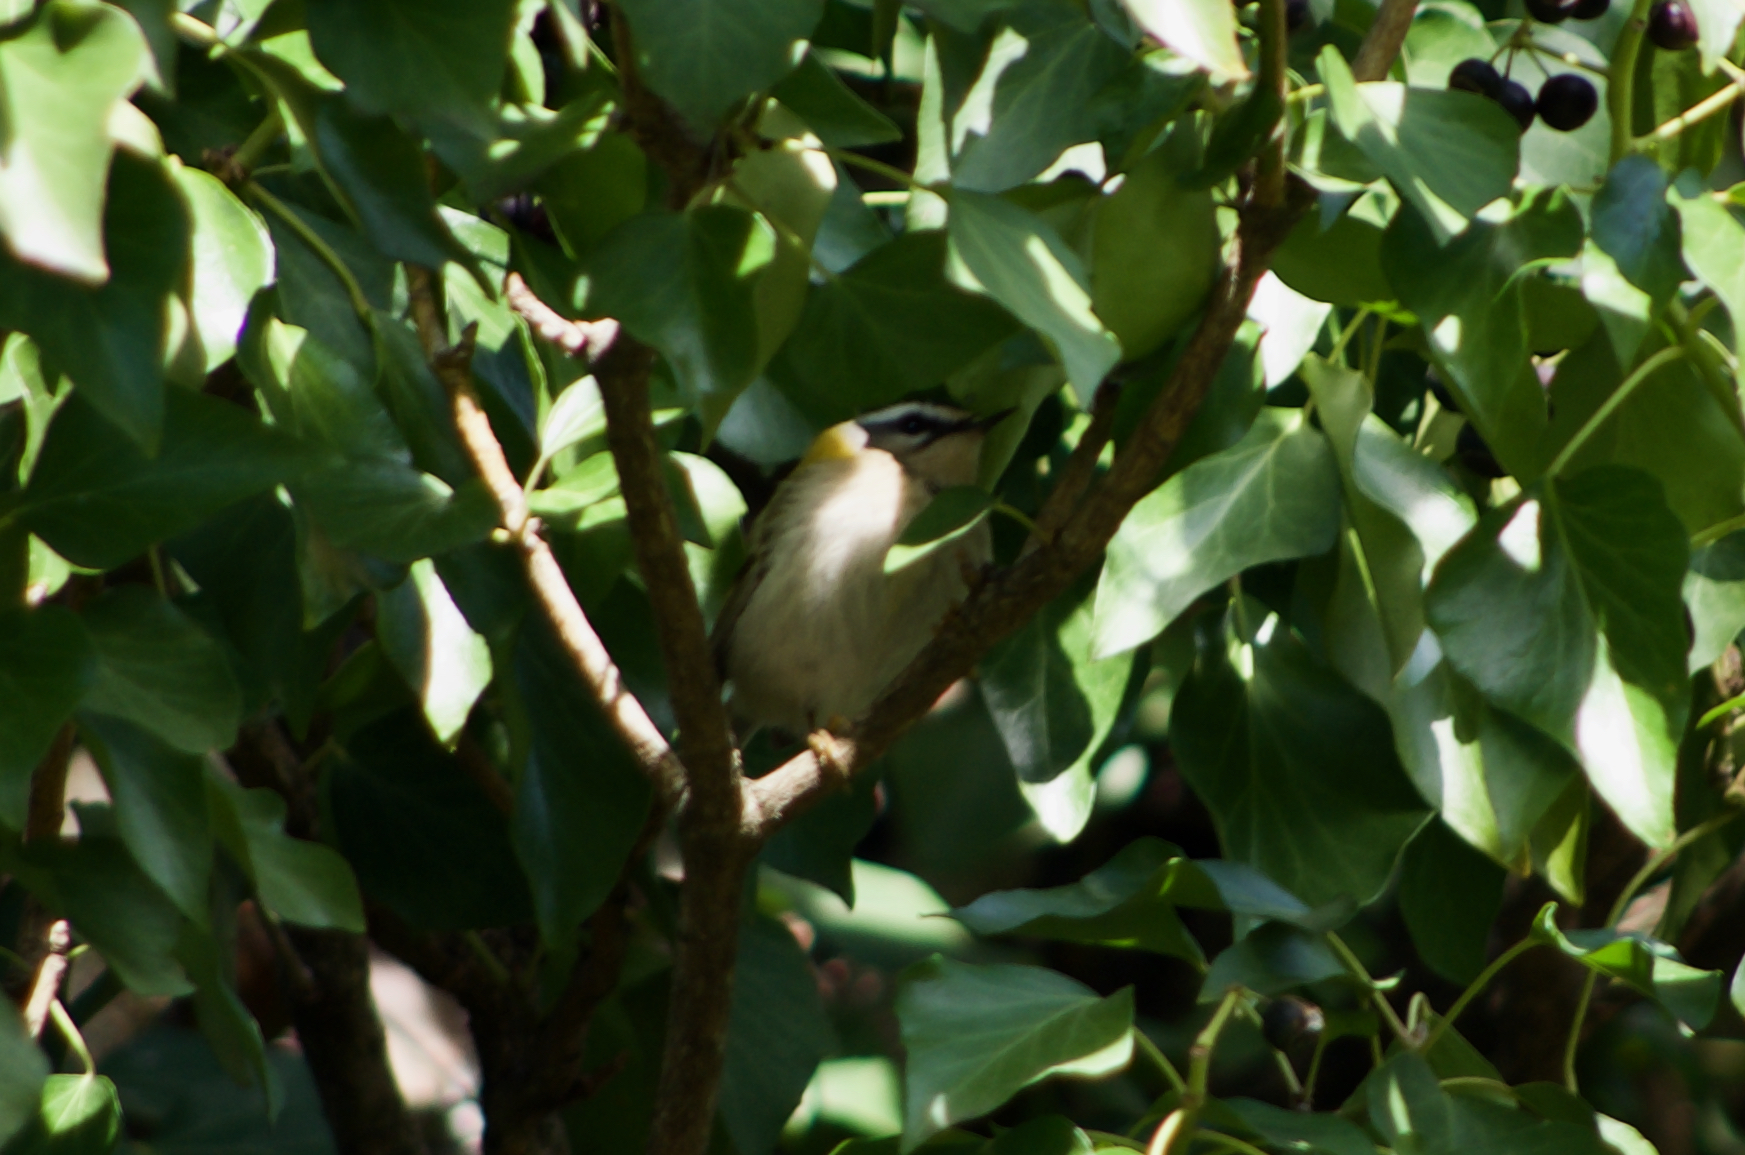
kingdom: Animalia
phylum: Chordata
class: Aves
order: Passeriformes
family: Regulidae
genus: Regulus
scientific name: Regulus ignicapilla
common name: Firecrest
